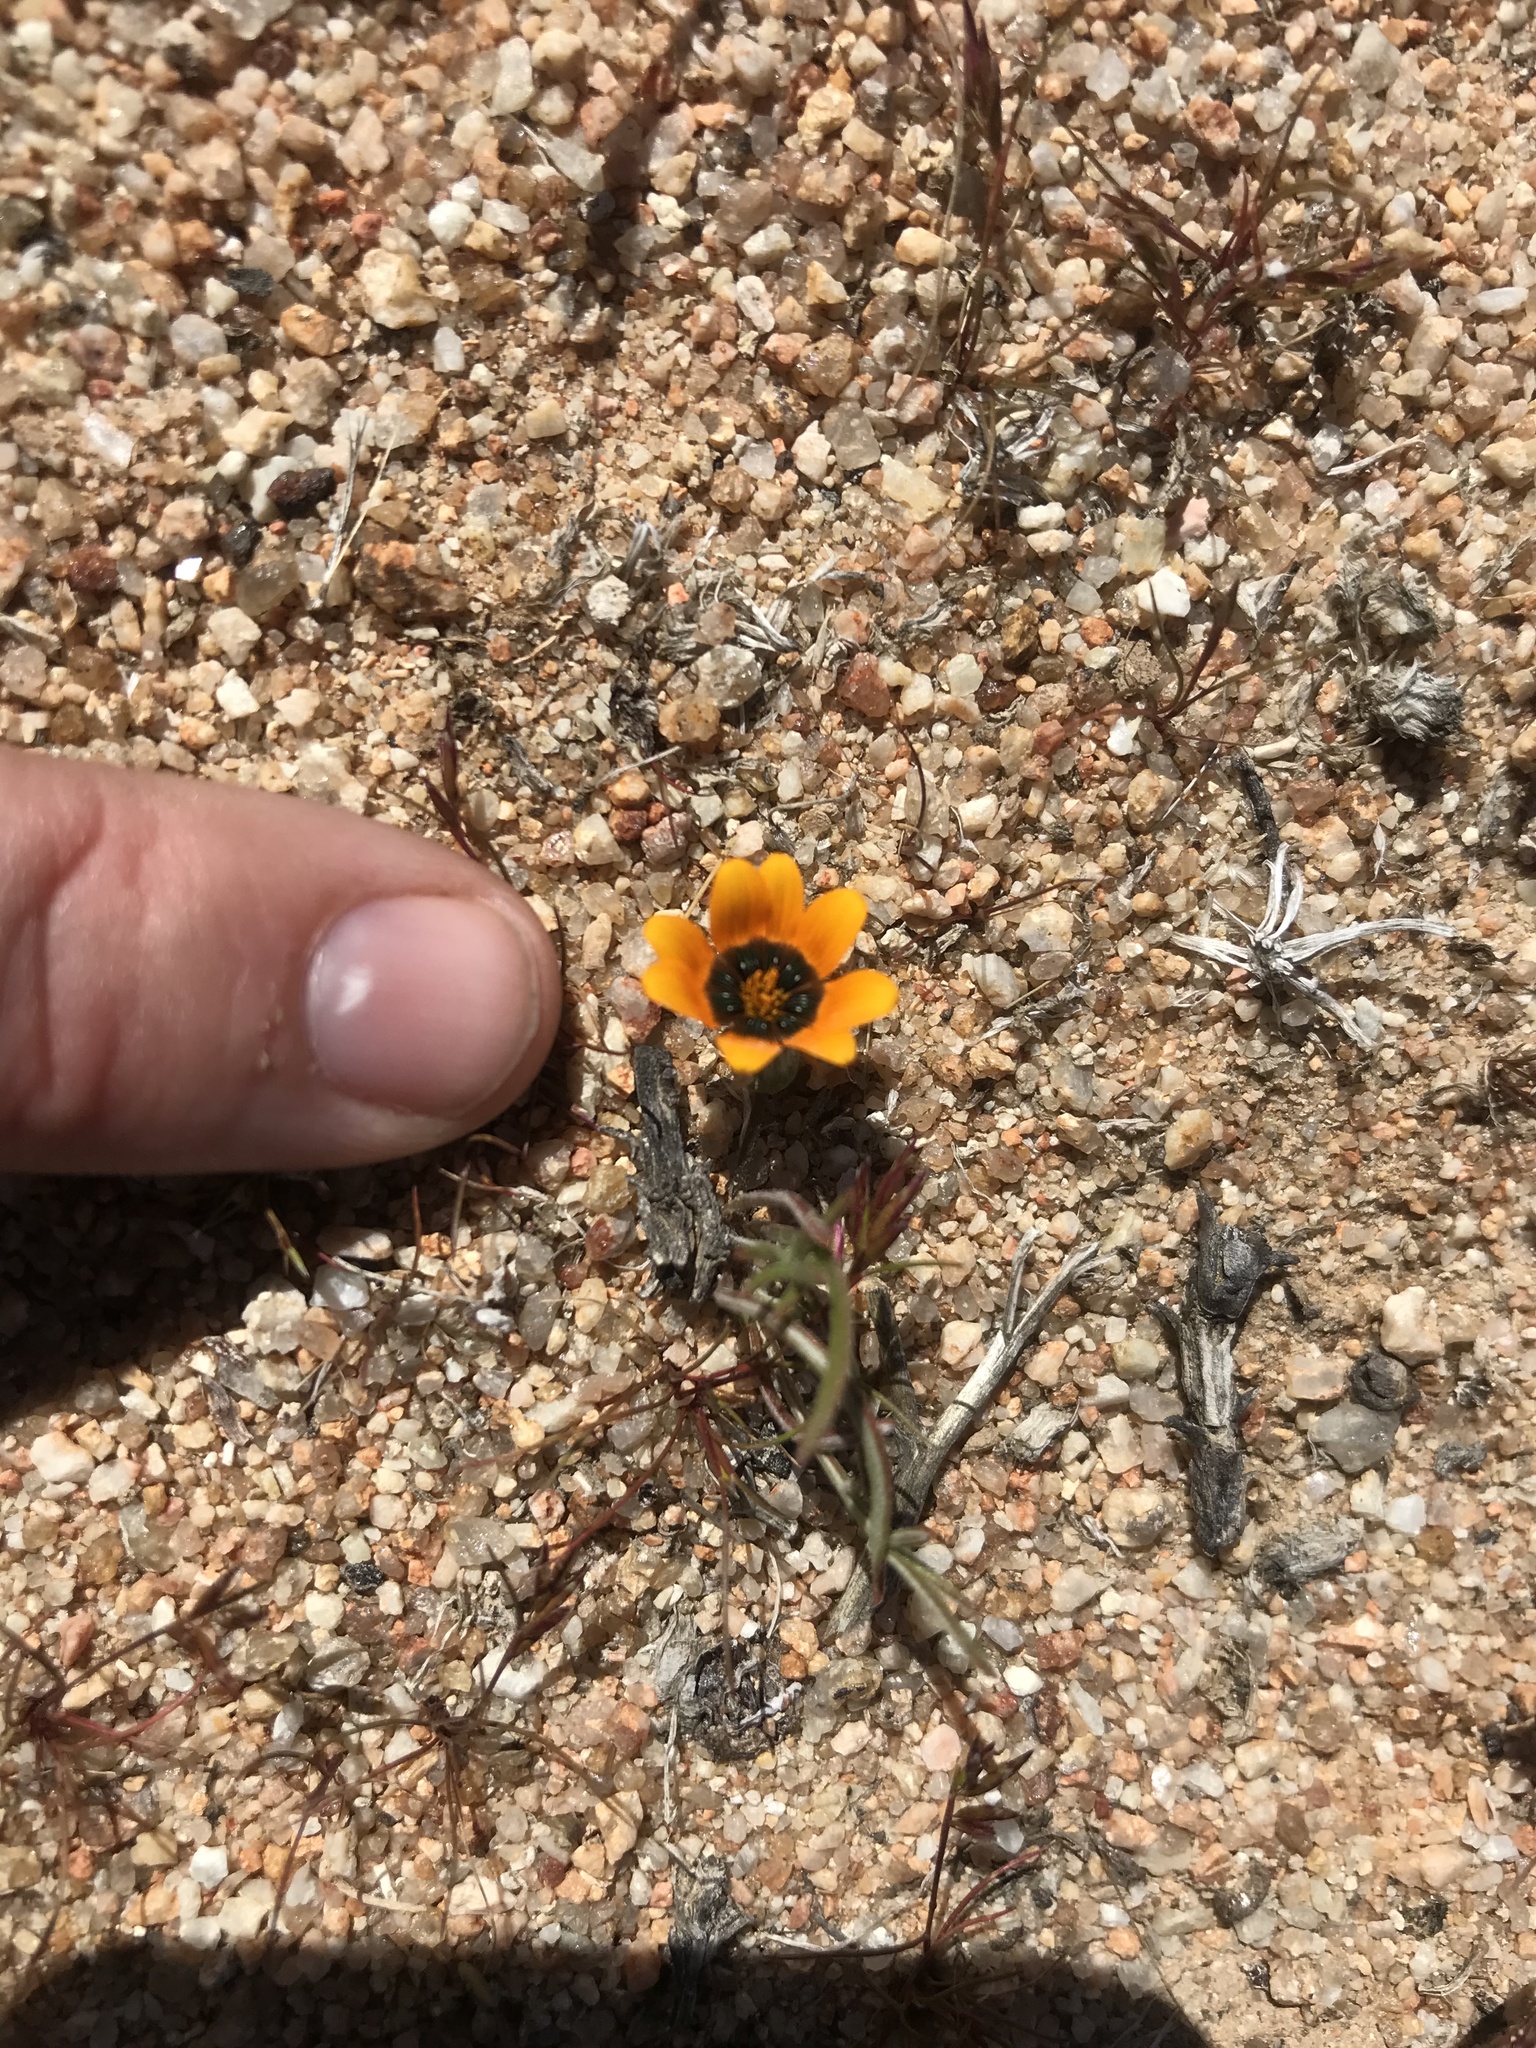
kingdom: Plantae
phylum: Tracheophyta
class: Magnoliopsida
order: Asterales
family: Asteraceae
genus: Gazania
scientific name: Gazania tenuifolia
